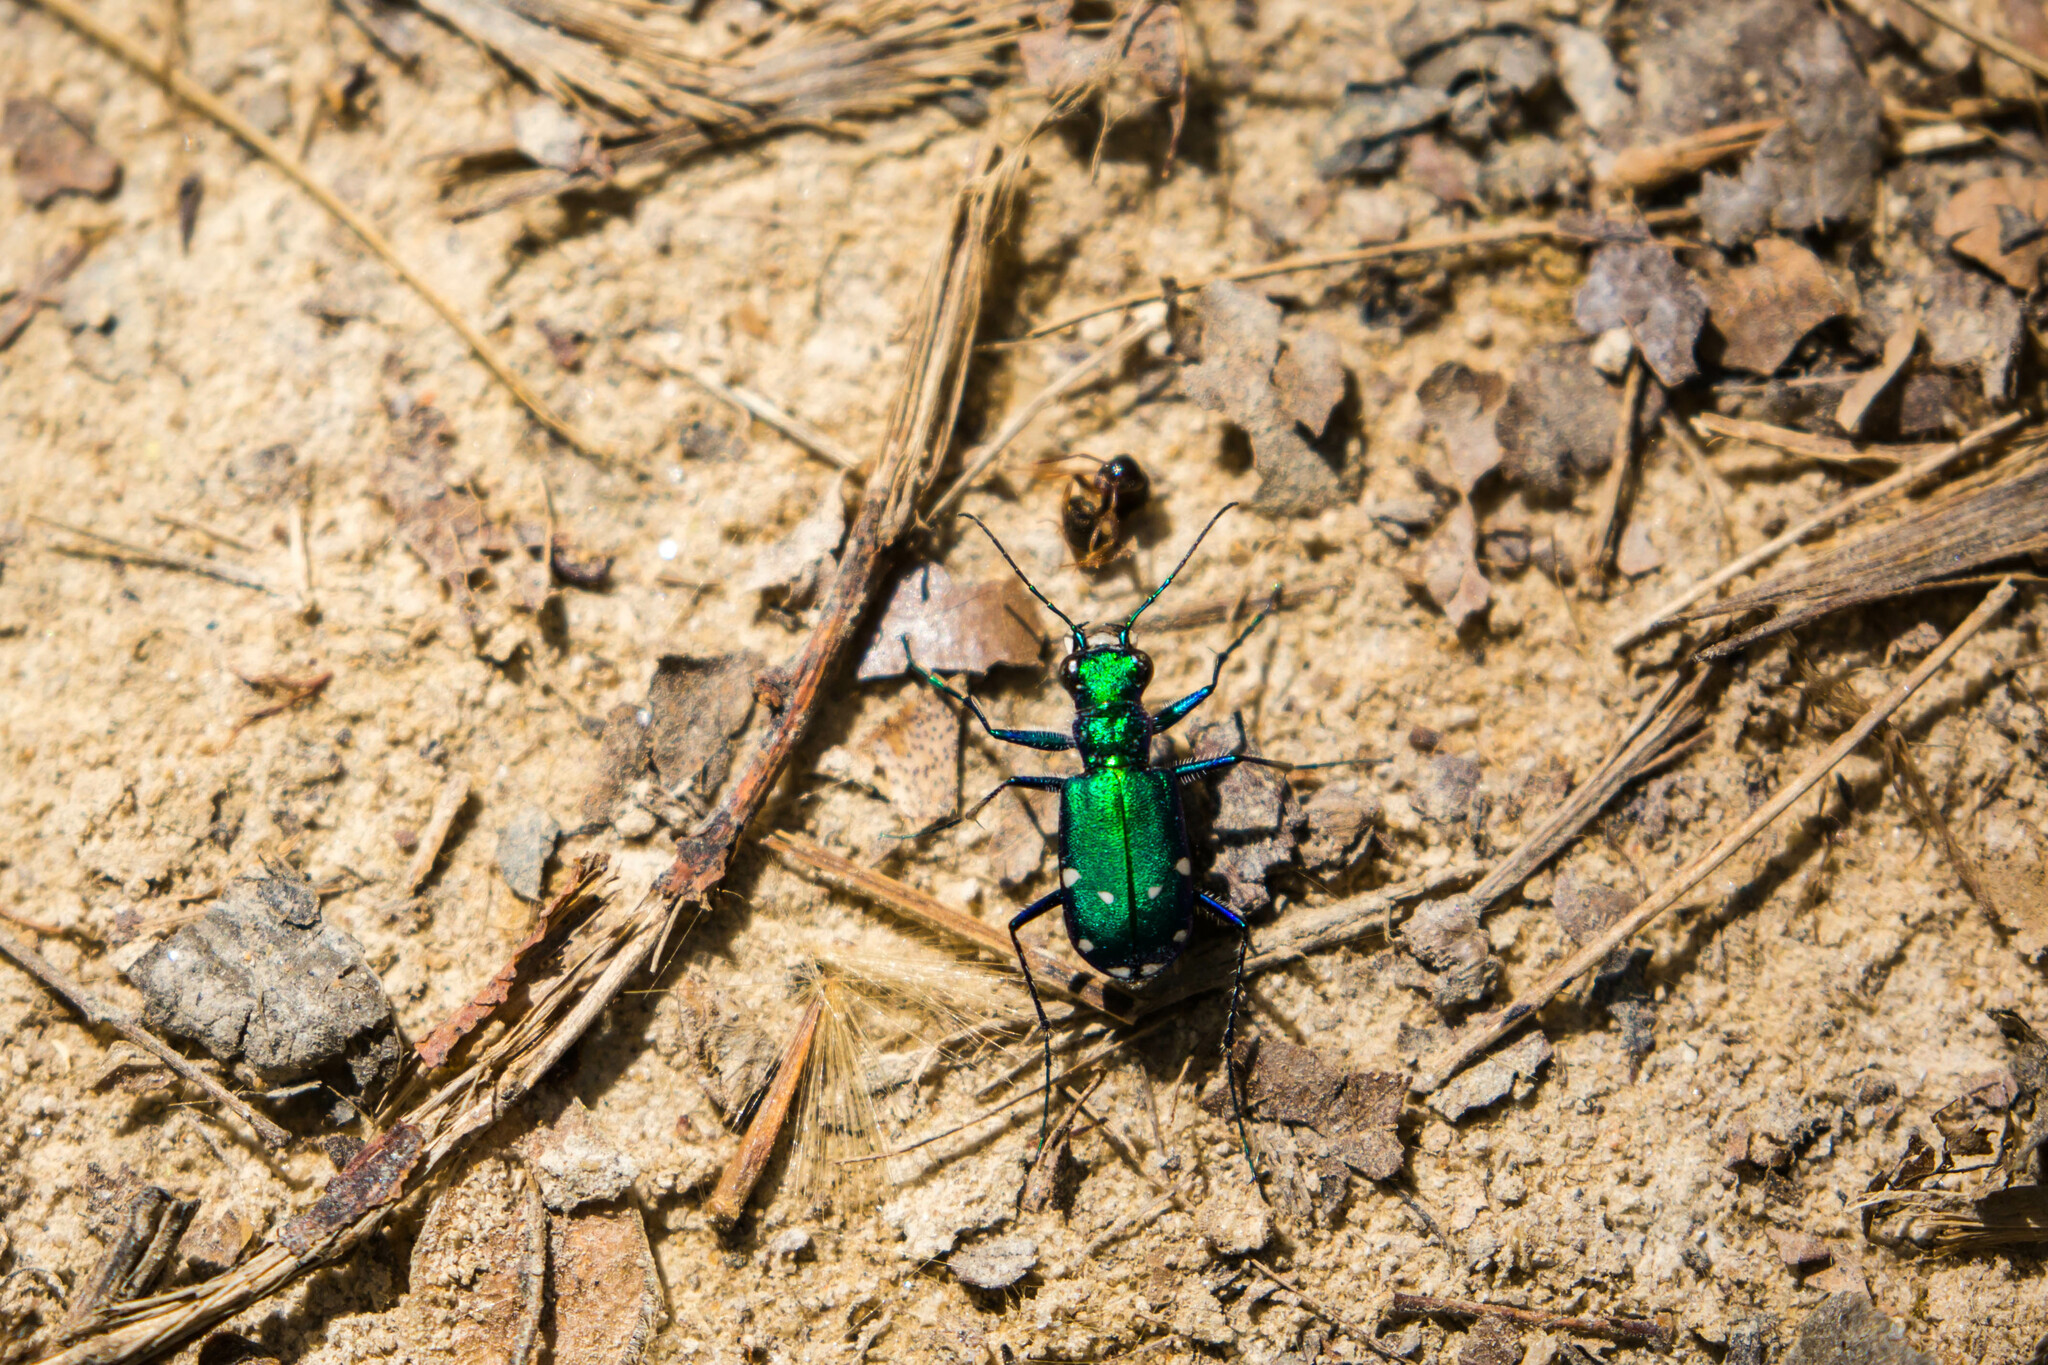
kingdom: Animalia
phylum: Arthropoda
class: Insecta
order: Coleoptera
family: Carabidae
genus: Cicindela
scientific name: Cicindela sexguttata
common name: Six-spotted tiger beetle
